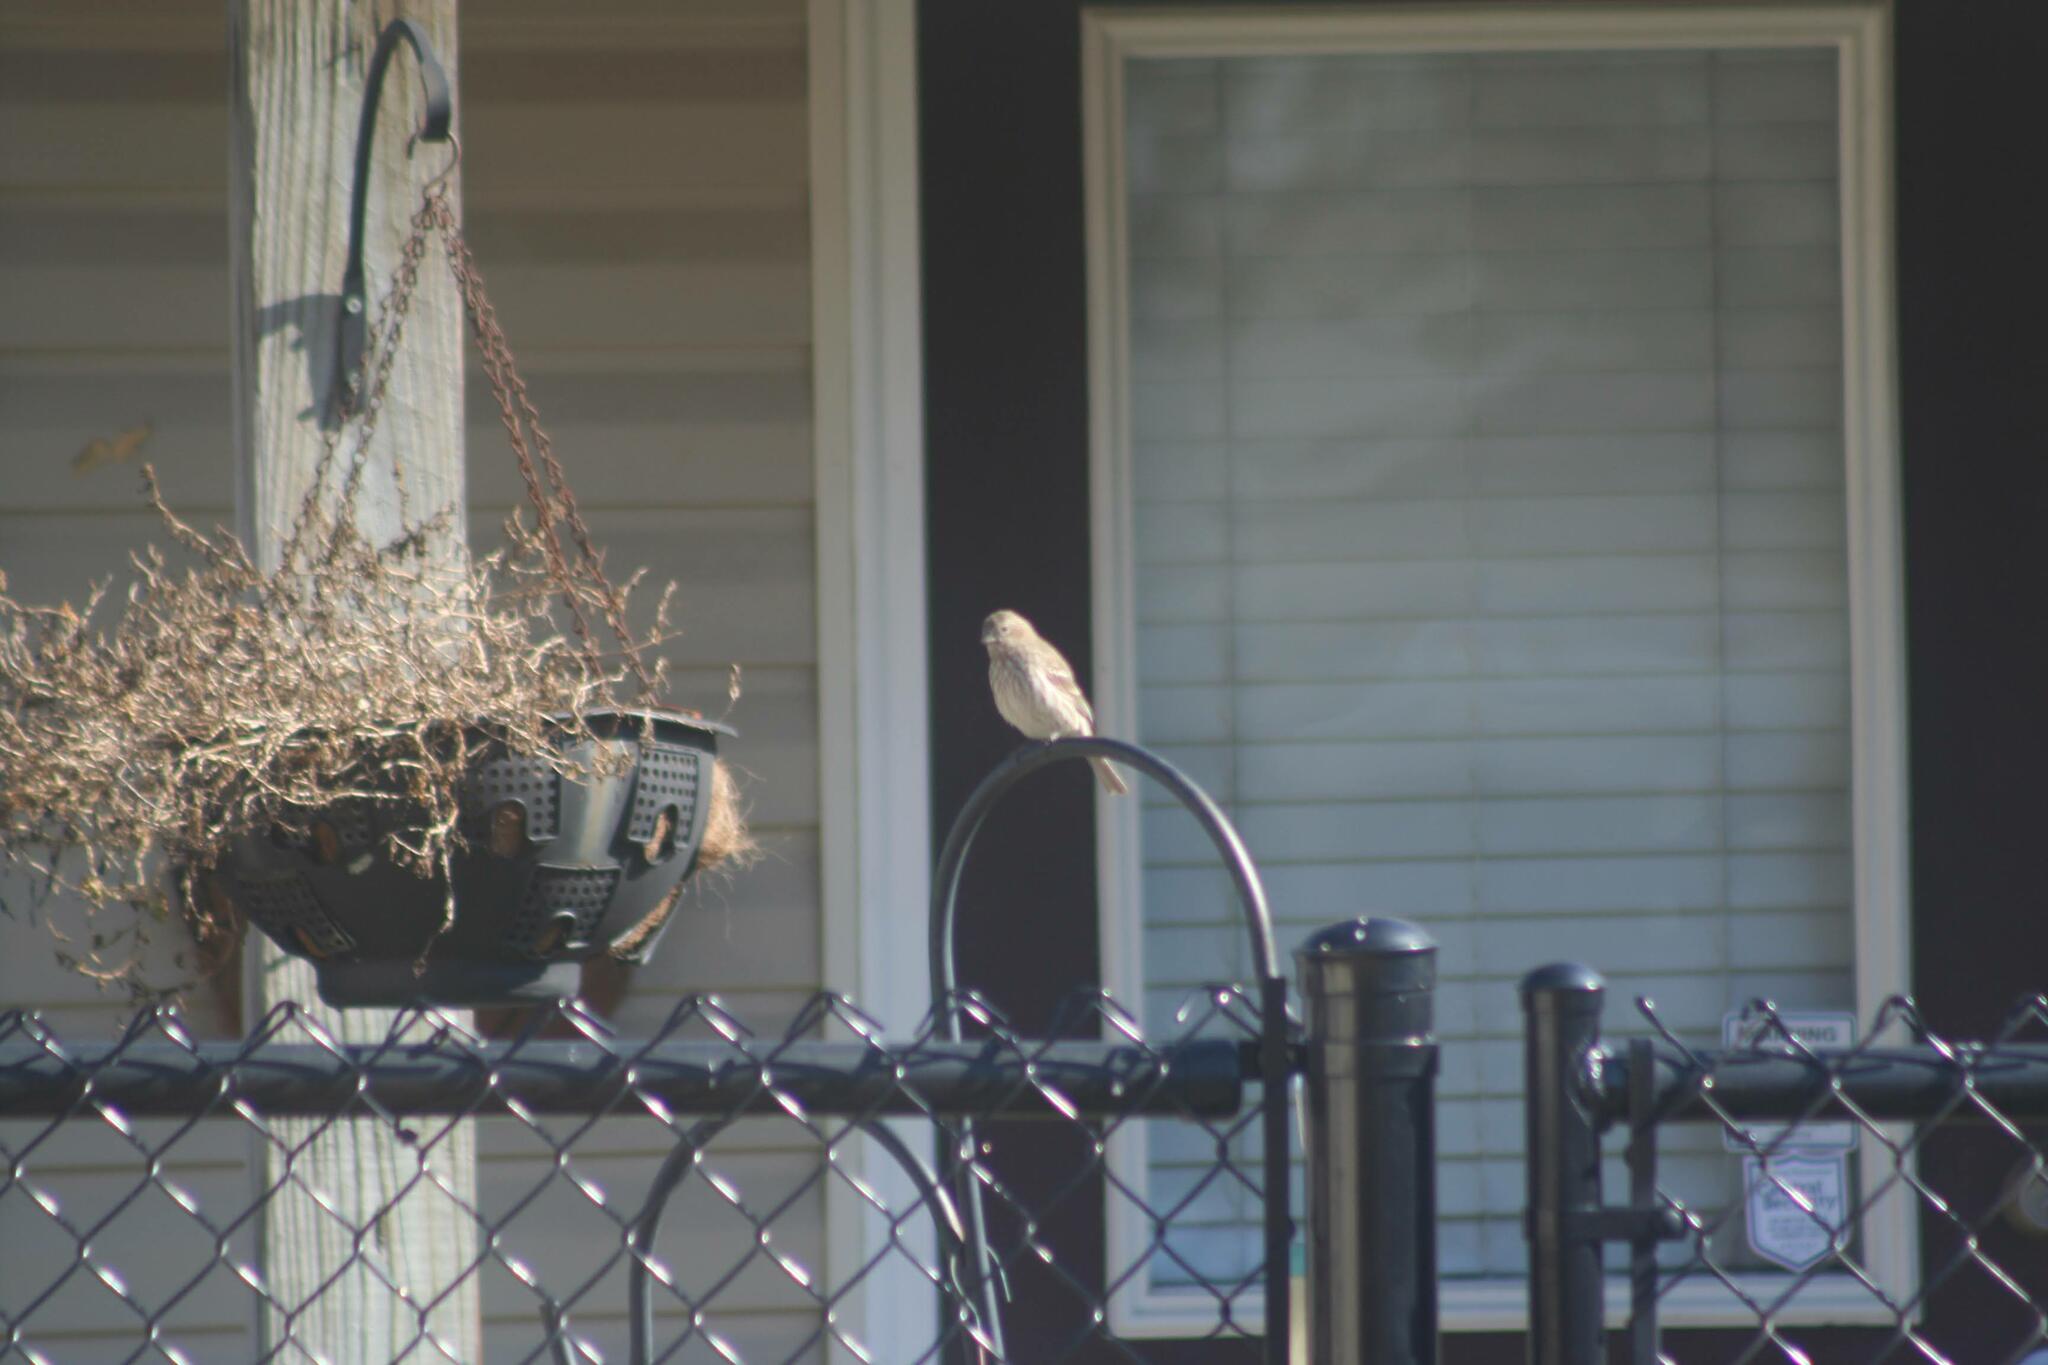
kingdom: Animalia
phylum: Chordata
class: Aves
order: Passeriformes
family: Fringillidae
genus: Haemorhous
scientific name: Haemorhous mexicanus
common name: House finch
